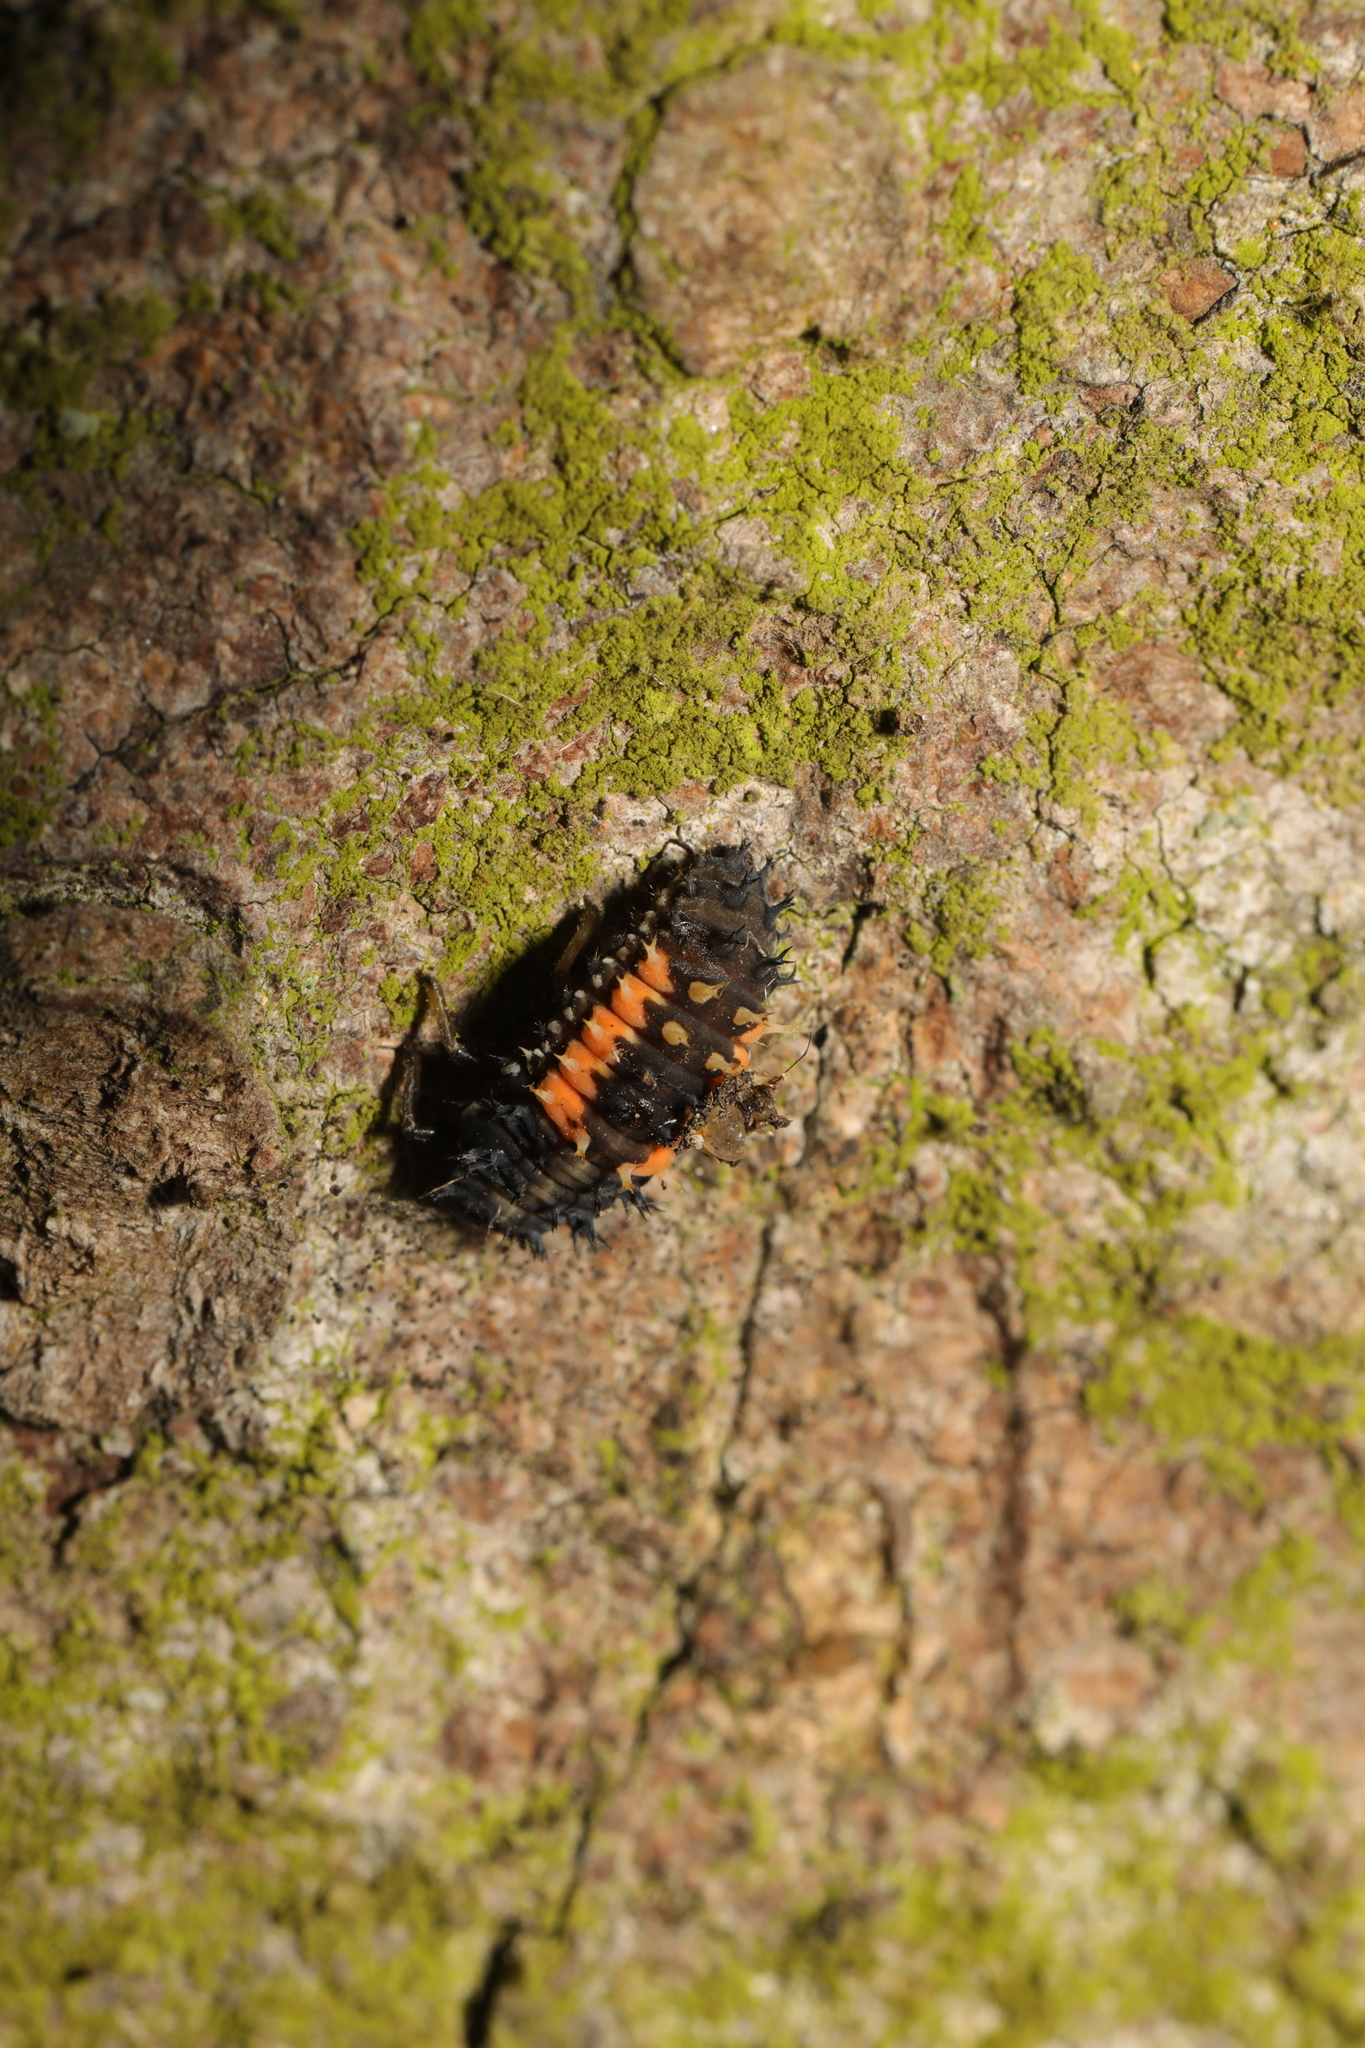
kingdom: Animalia
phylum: Arthropoda
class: Insecta
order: Coleoptera
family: Coccinellidae
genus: Harmonia
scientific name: Harmonia axyridis
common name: Harlequin ladybird
